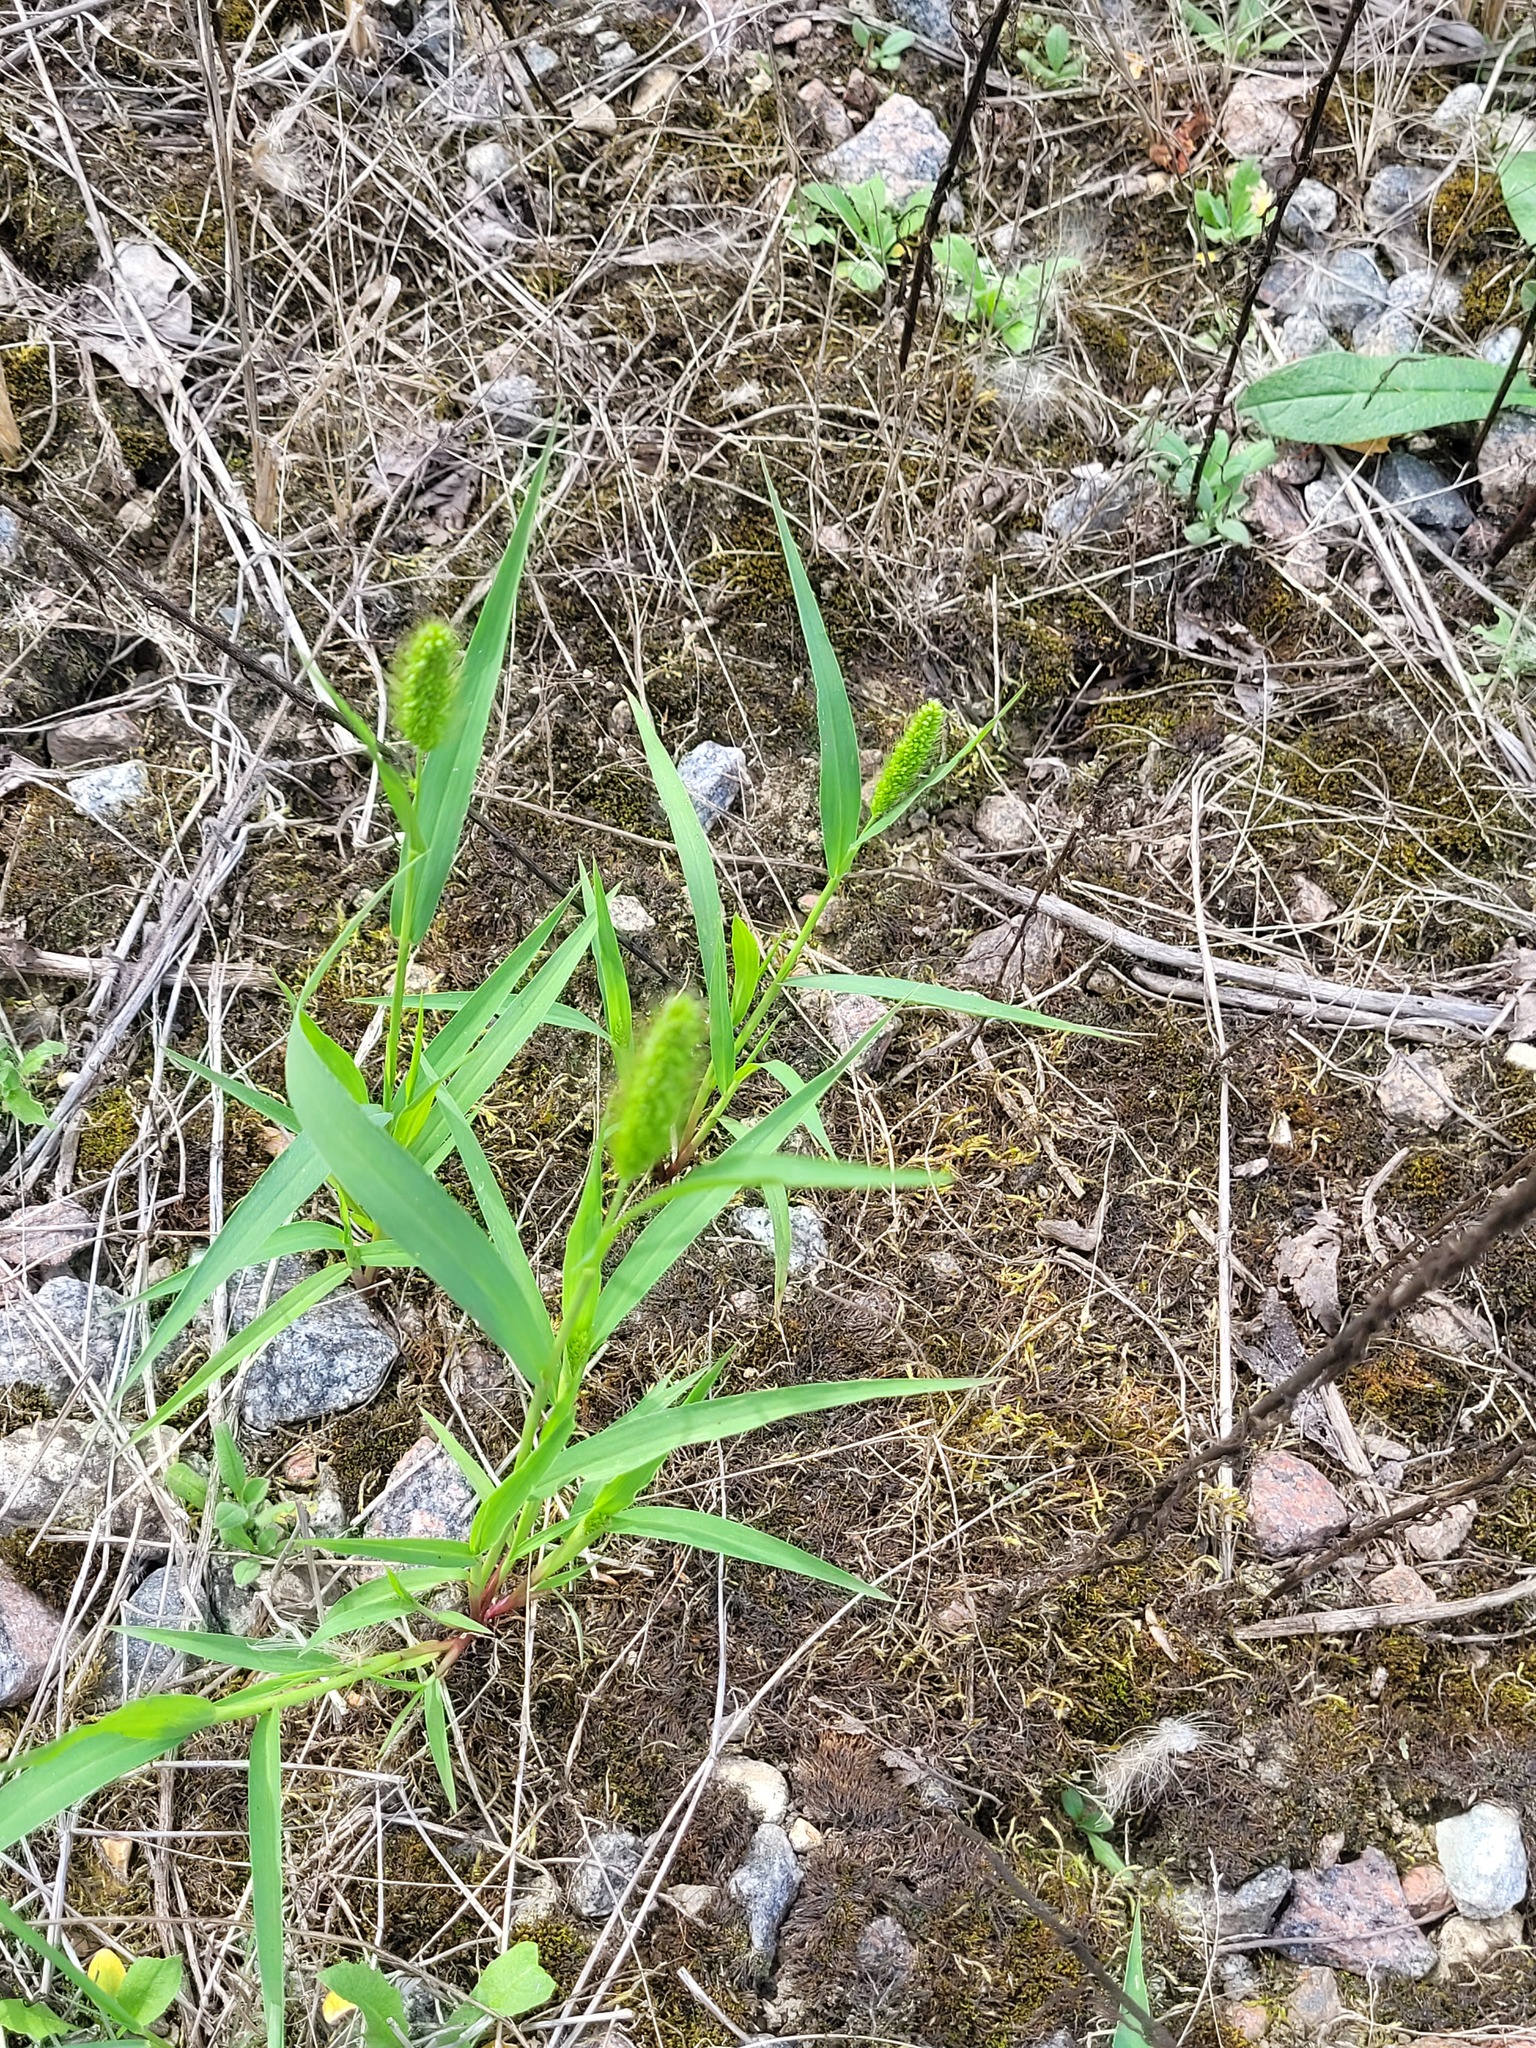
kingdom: Plantae
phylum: Tracheophyta
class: Liliopsida
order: Poales
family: Poaceae
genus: Setaria
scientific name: Setaria viridis
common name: Green bristlegrass
